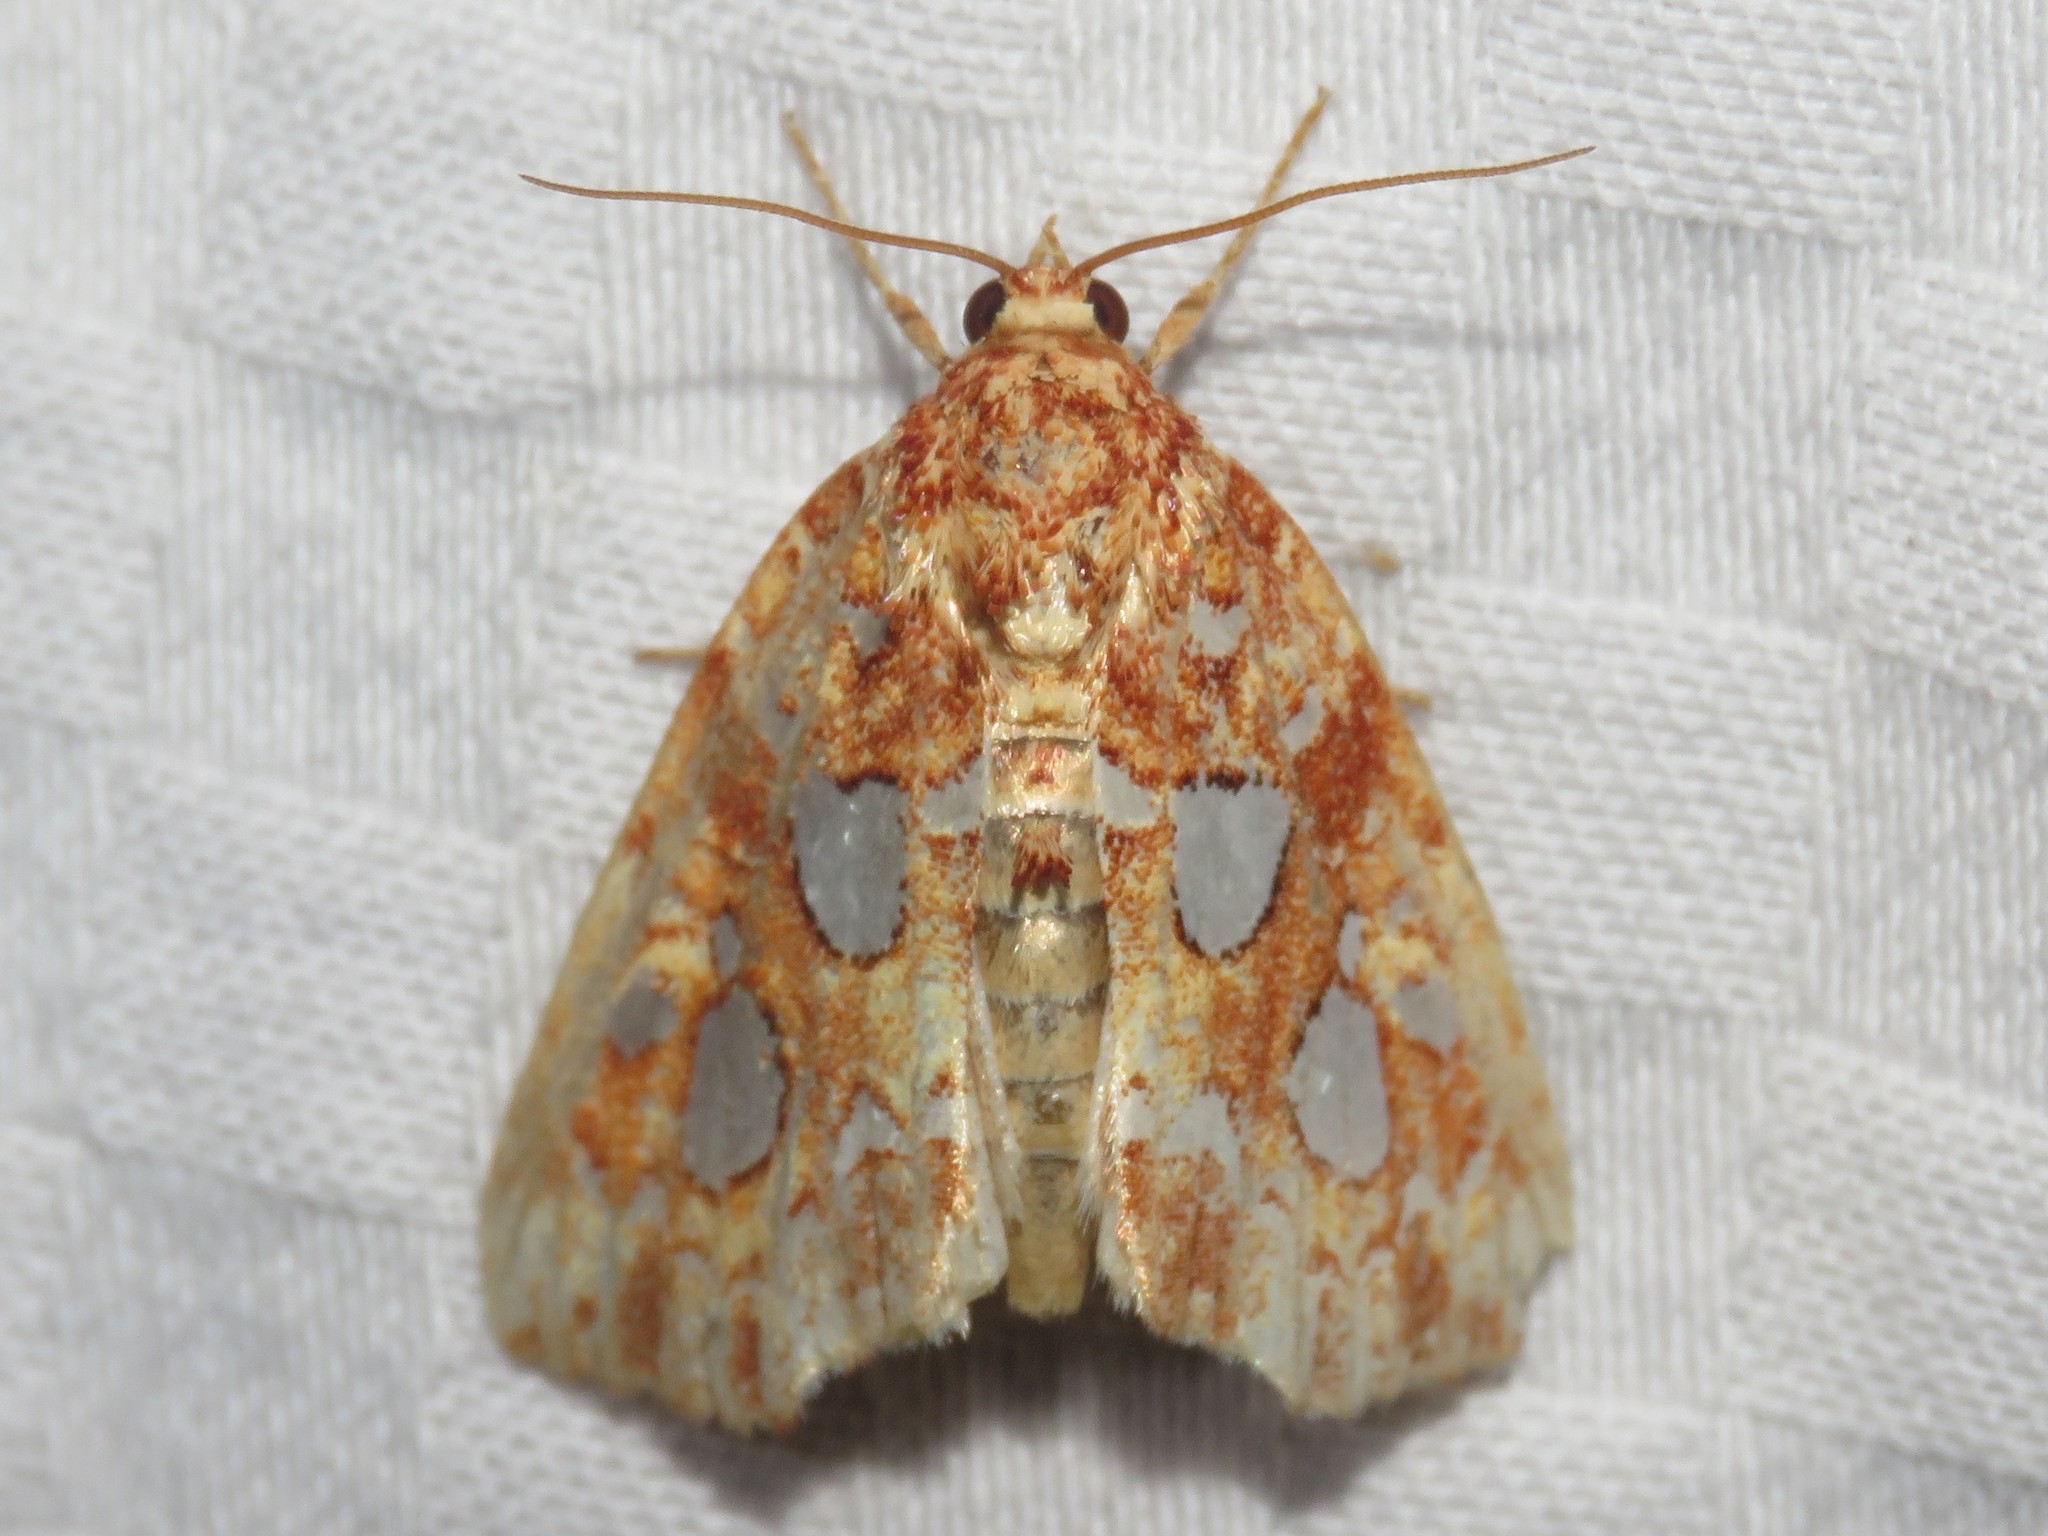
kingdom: Animalia
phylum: Arthropoda
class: Insecta
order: Lepidoptera
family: Noctuidae
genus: Callopistria
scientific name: Callopistria cordata
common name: Silver-spotted fern moth
